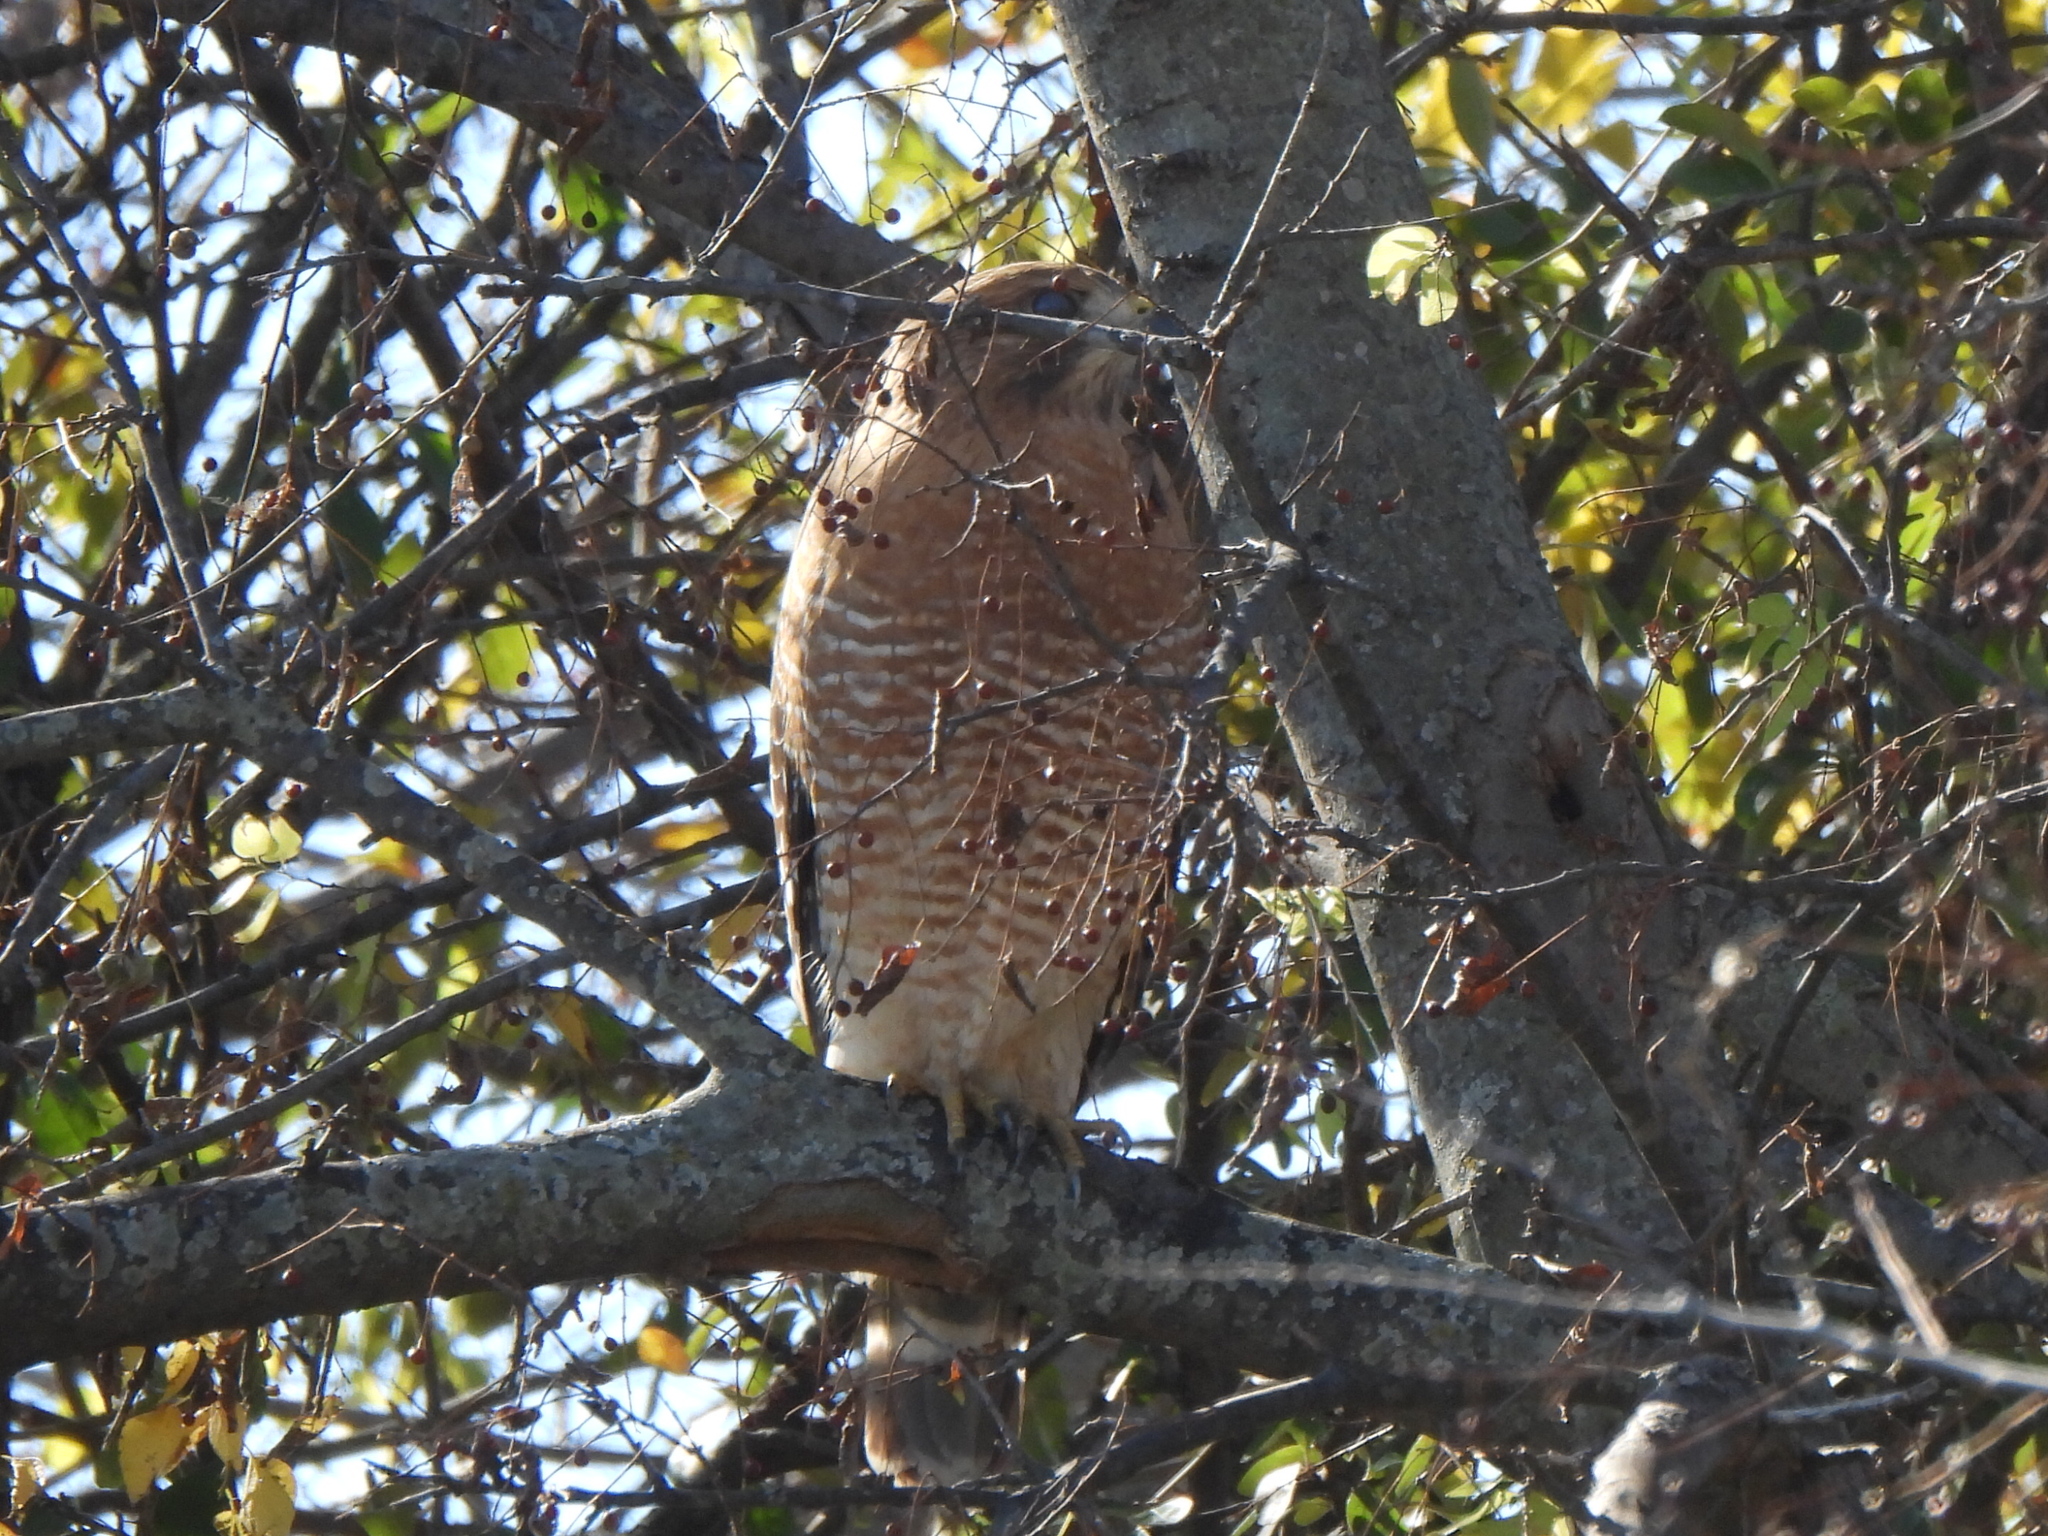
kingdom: Animalia
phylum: Chordata
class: Aves
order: Accipitriformes
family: Accipitridae
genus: Buteo
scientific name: Buteo lineatus
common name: Red-shouldered hawk
